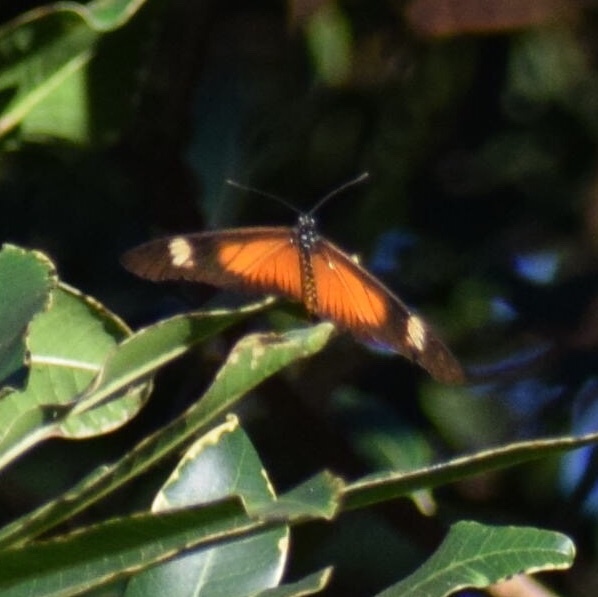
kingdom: Animalia
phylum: Arthropoda
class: Insecta
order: Lepidoptera
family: Nymphalidae
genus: Acraea
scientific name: Acraea esebria
